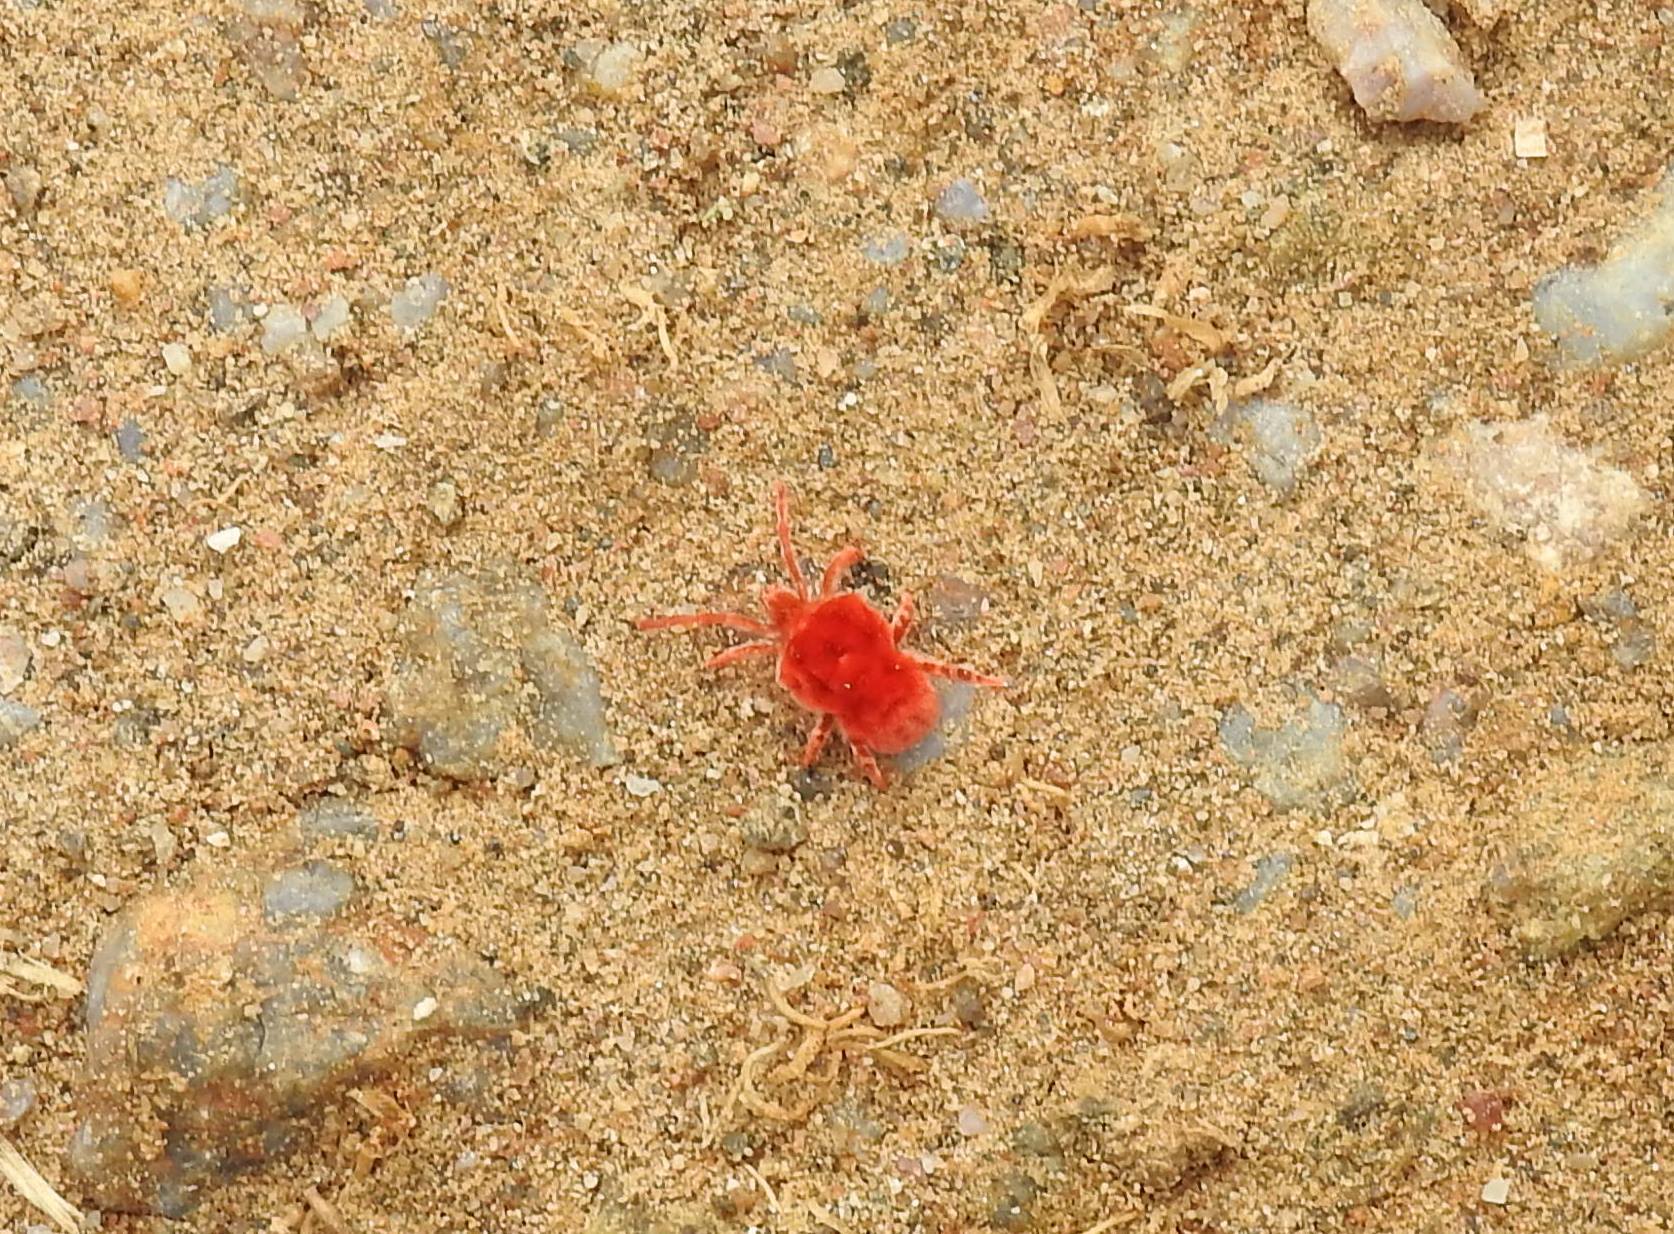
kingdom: Animalia
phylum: Arthropoda
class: Arachnida
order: Trombidiformes
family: Leeuwenhoekiidae
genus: Dinothrombium
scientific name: Dinothrombium
